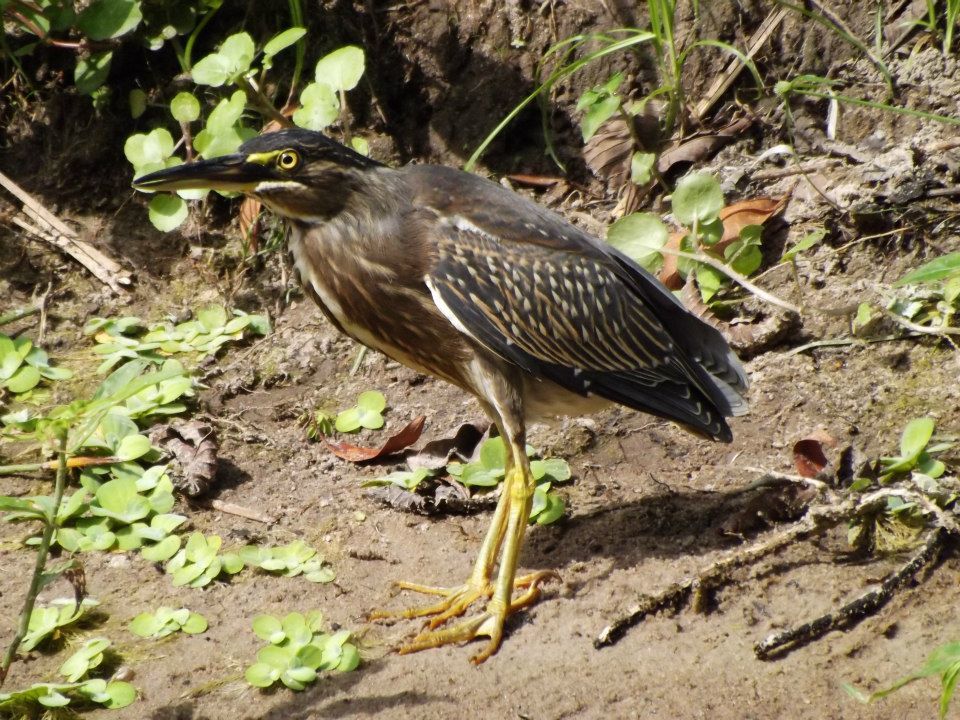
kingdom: Animalia
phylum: Chordata
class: Aves
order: Pelecaniformes
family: Ardeidae
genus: Butorides
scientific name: Butorides striata
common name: Striated heron
